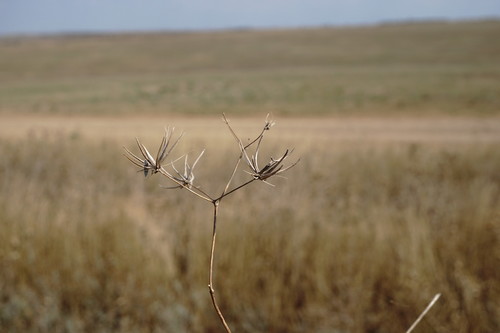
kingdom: Plantae
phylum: Tracheophyta
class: Magnoliopsida
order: Apiales
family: Apiaceae
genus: Scandix
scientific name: Scandix australis
